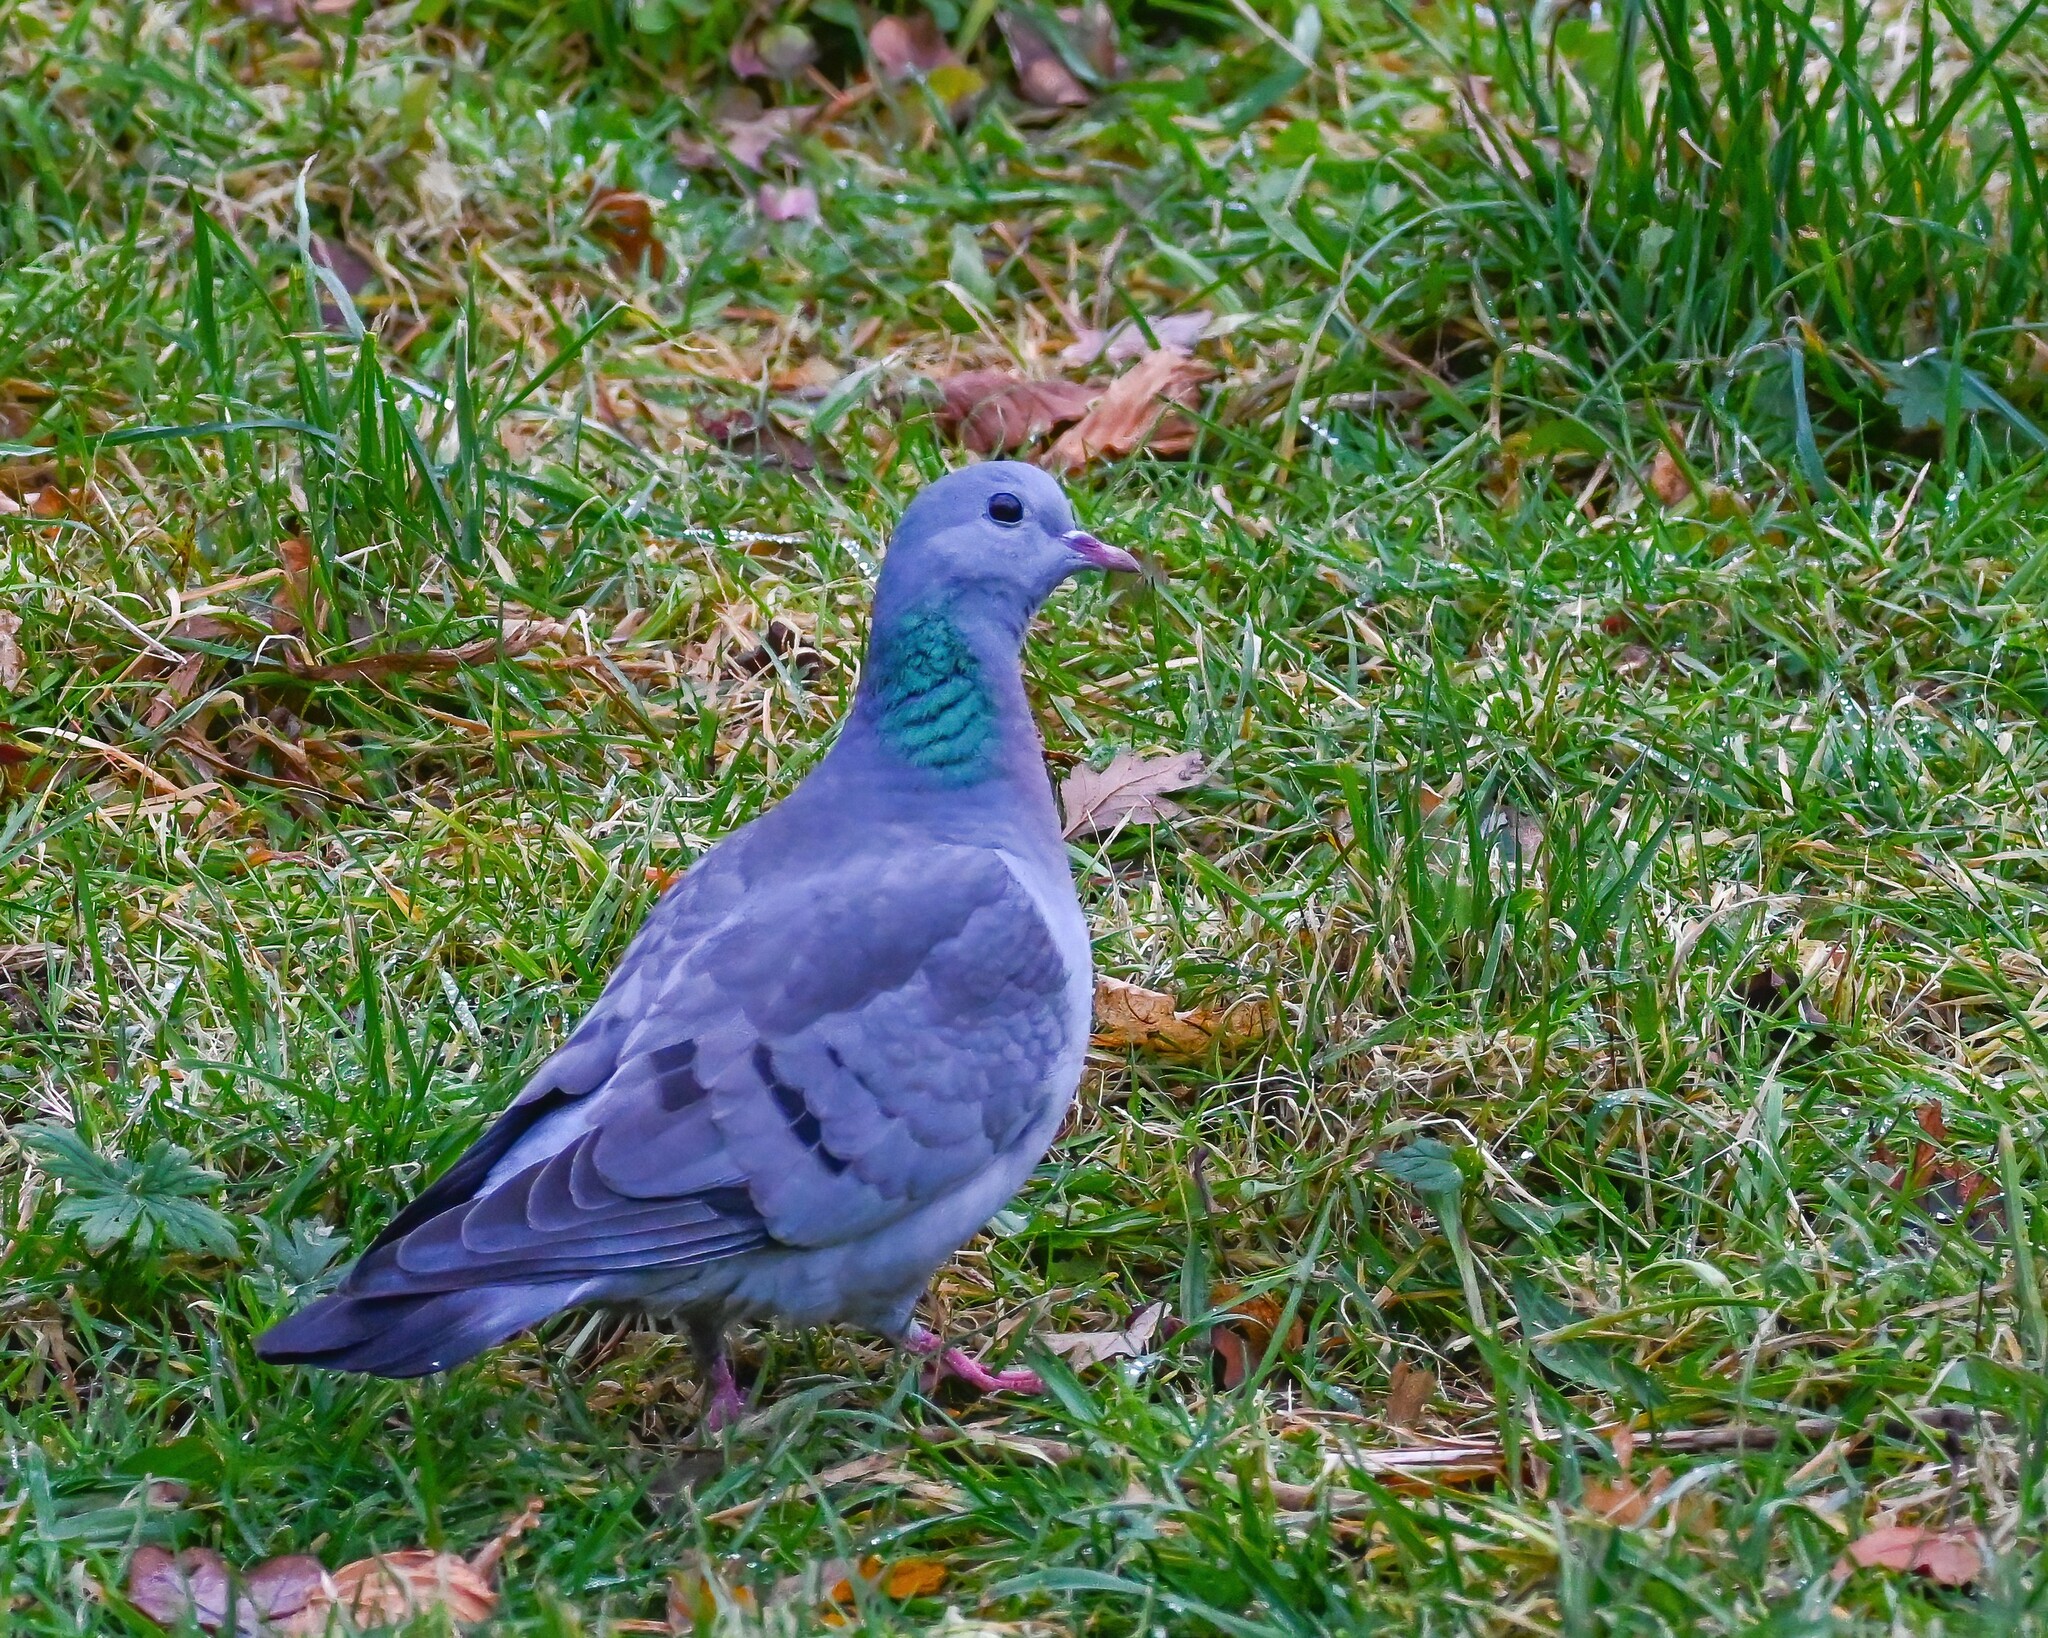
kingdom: Animalia
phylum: Chordata
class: Aves
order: Columbiformes
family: Columbidae
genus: Columba
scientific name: Columba oenas
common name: Stock dove
